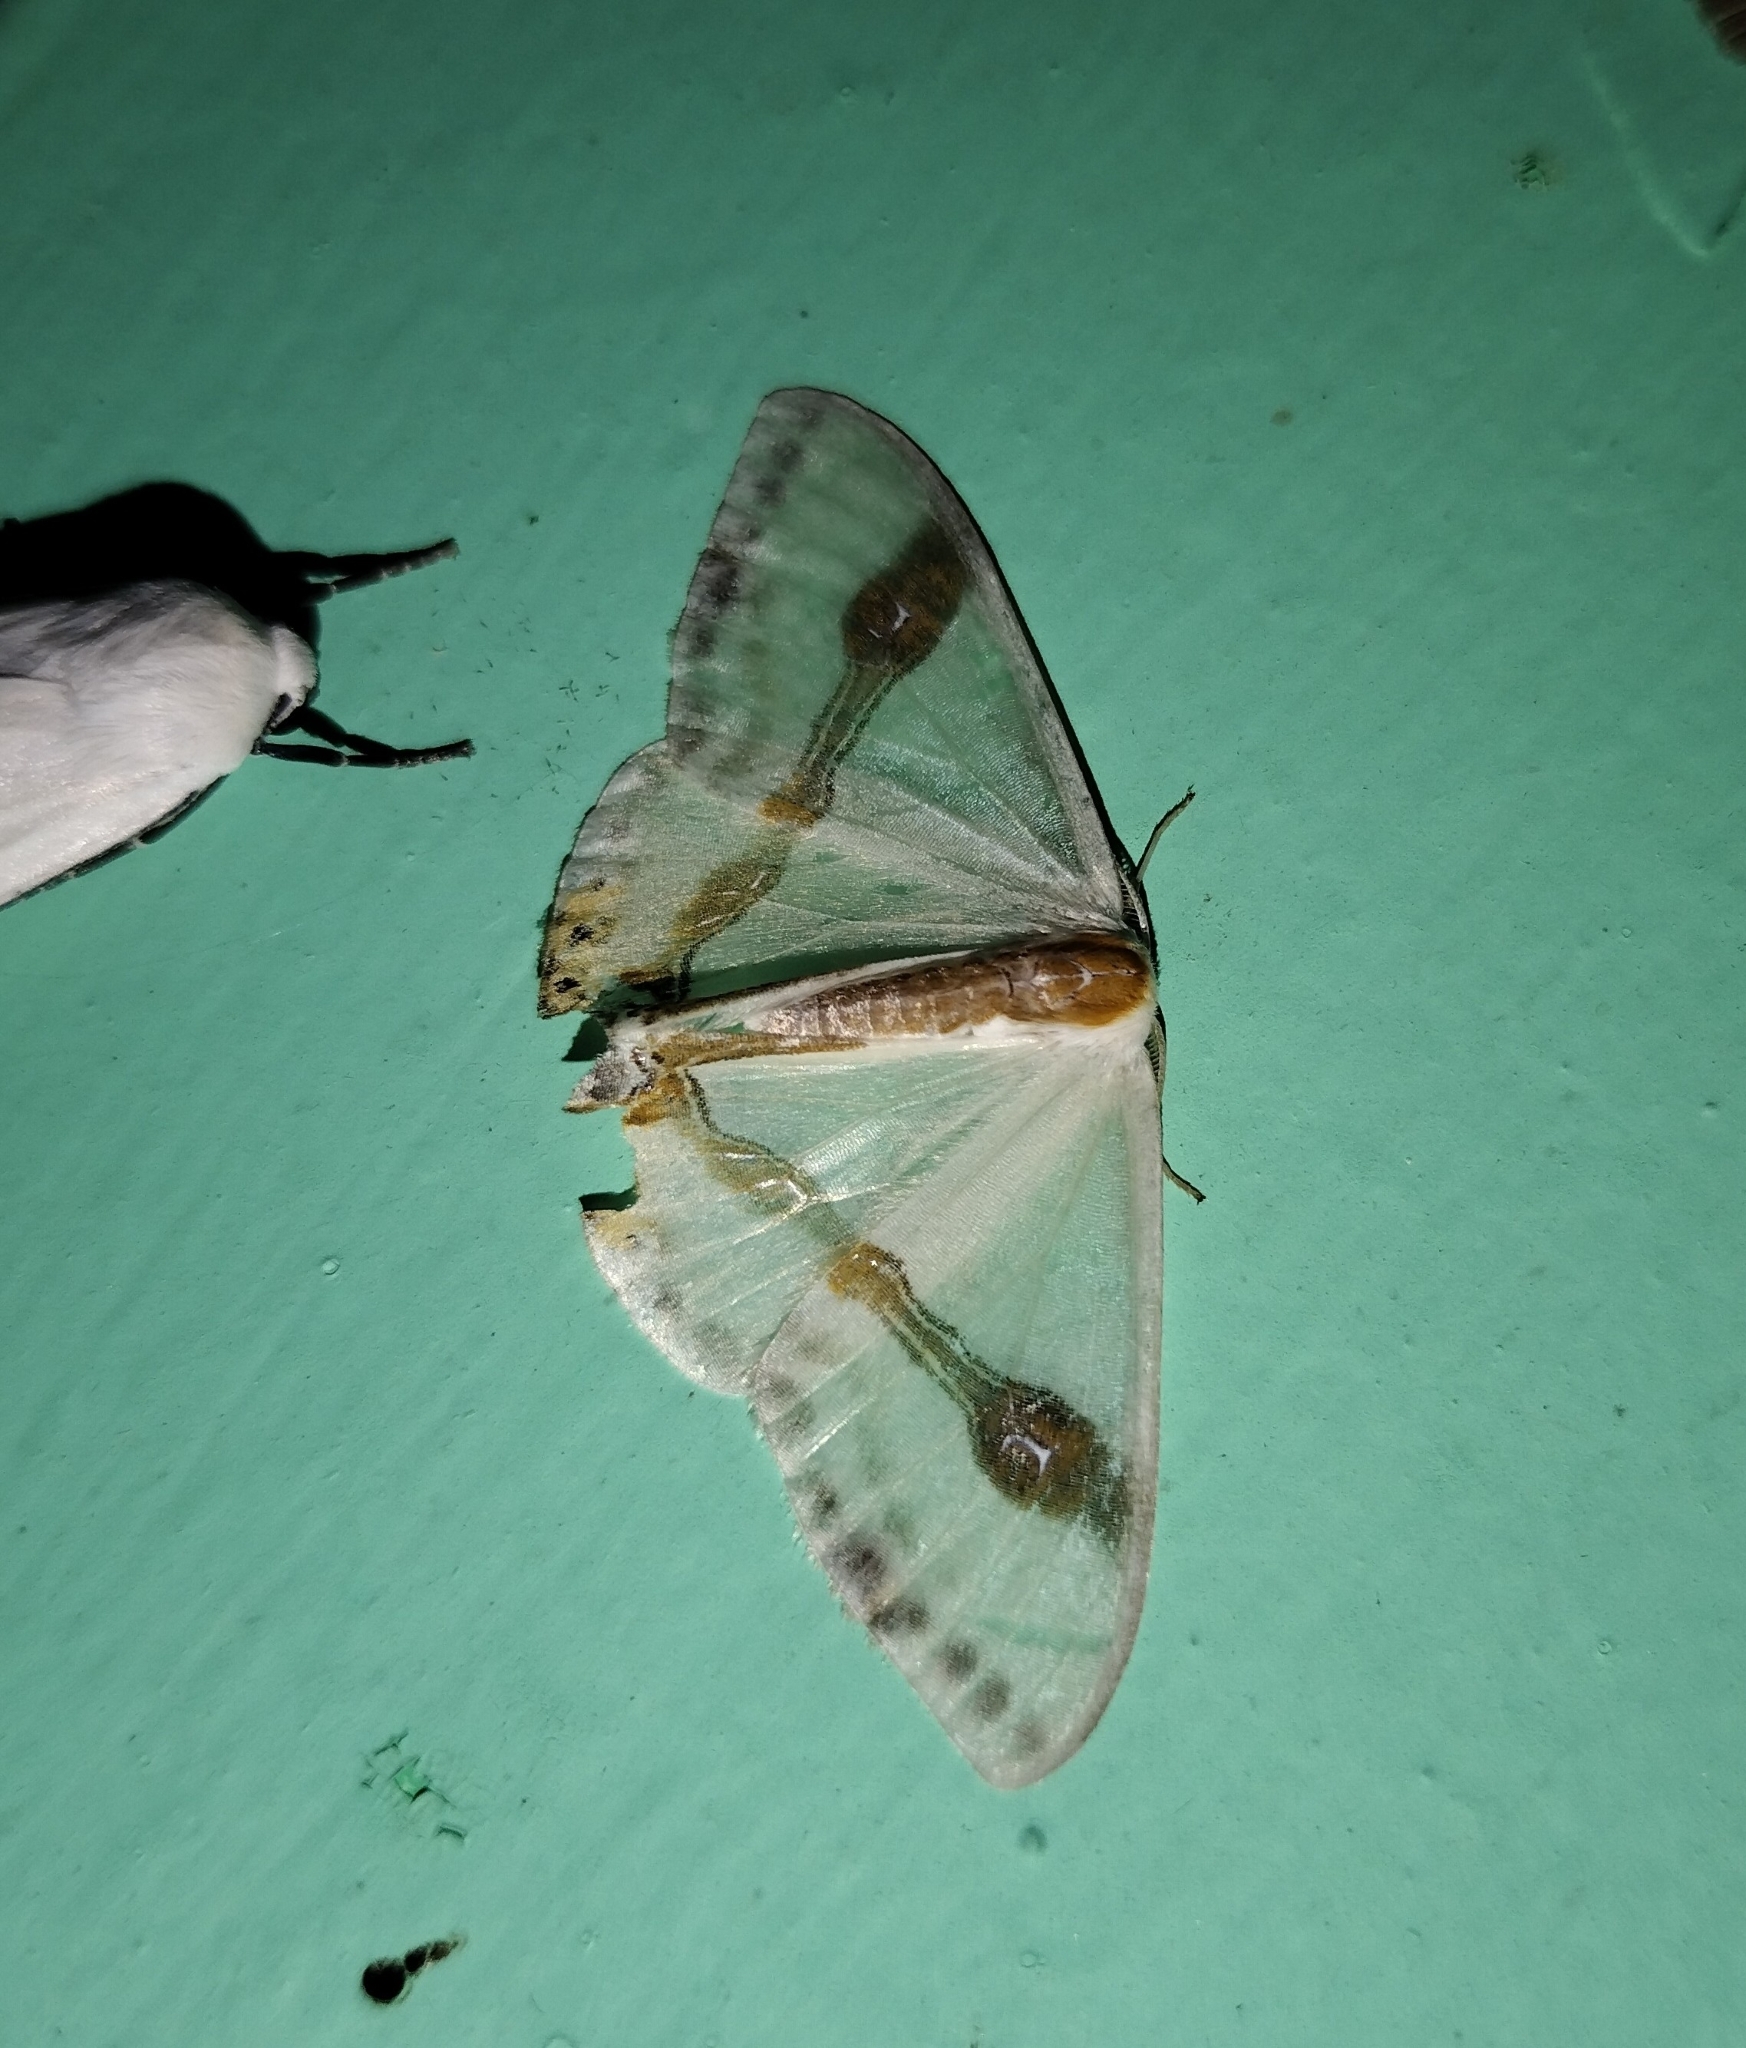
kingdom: Animalia
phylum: Arthropoda
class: Insecta
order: Lepidoptera
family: Drepanidae
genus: Macrocilix
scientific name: Macrocilix mysticata
